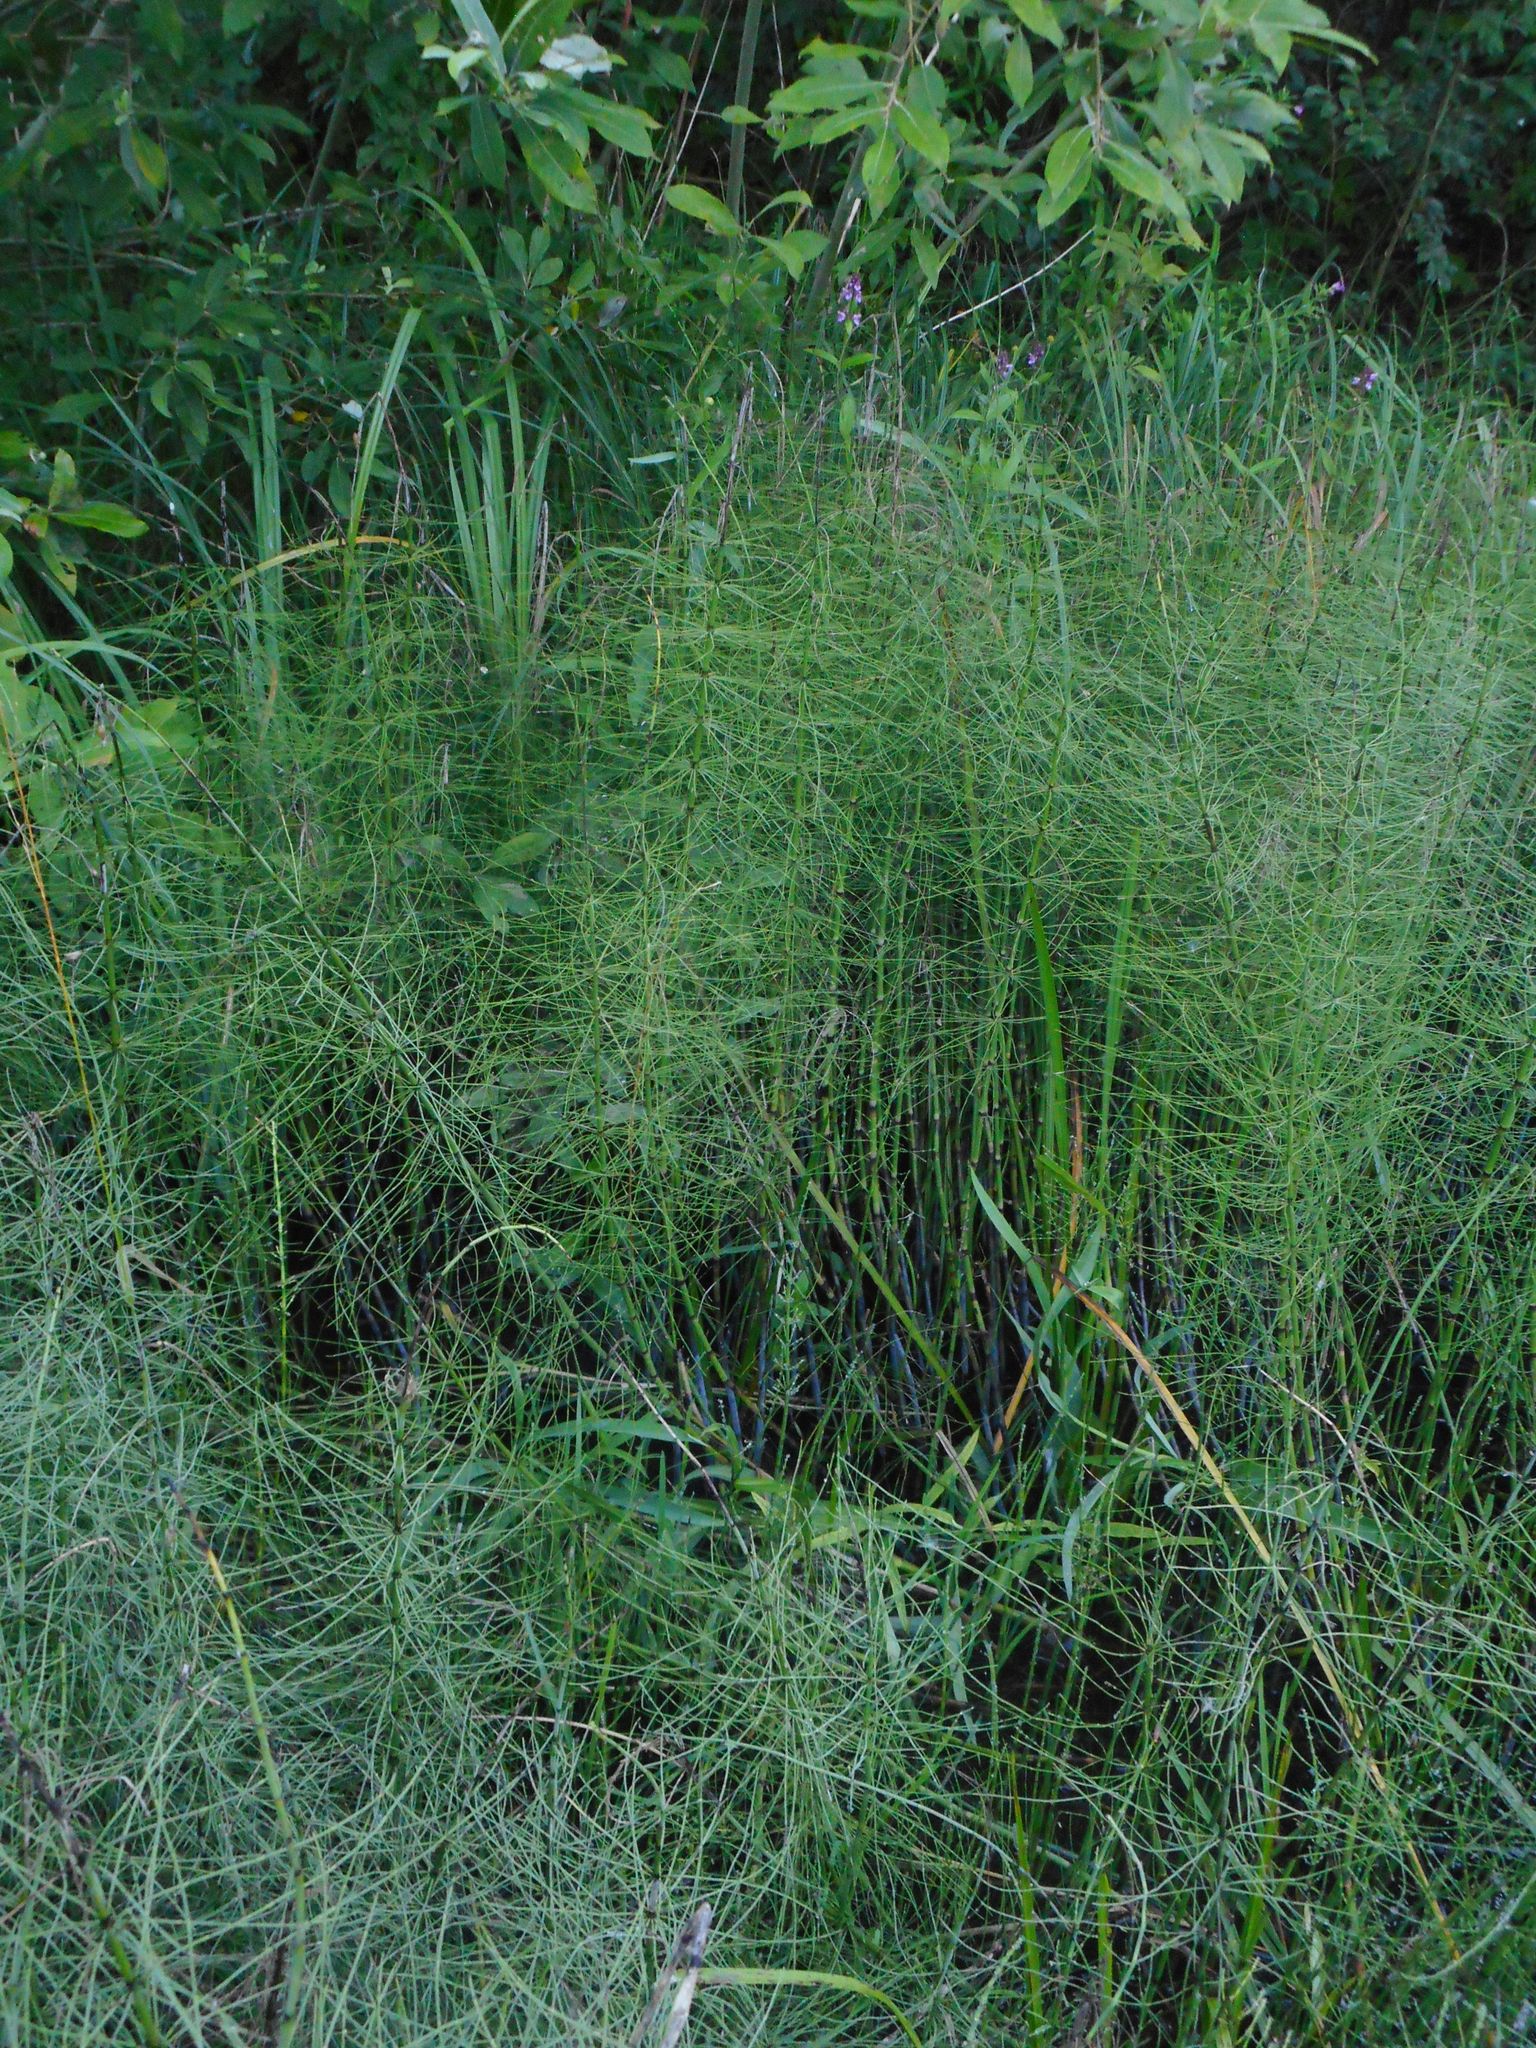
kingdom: Plantae
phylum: Tracheophyta
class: Polypodiopsida
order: Equisetales
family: Equisetaceae
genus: Equisetum
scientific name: Equisetum fluviatile
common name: Water horsetail
